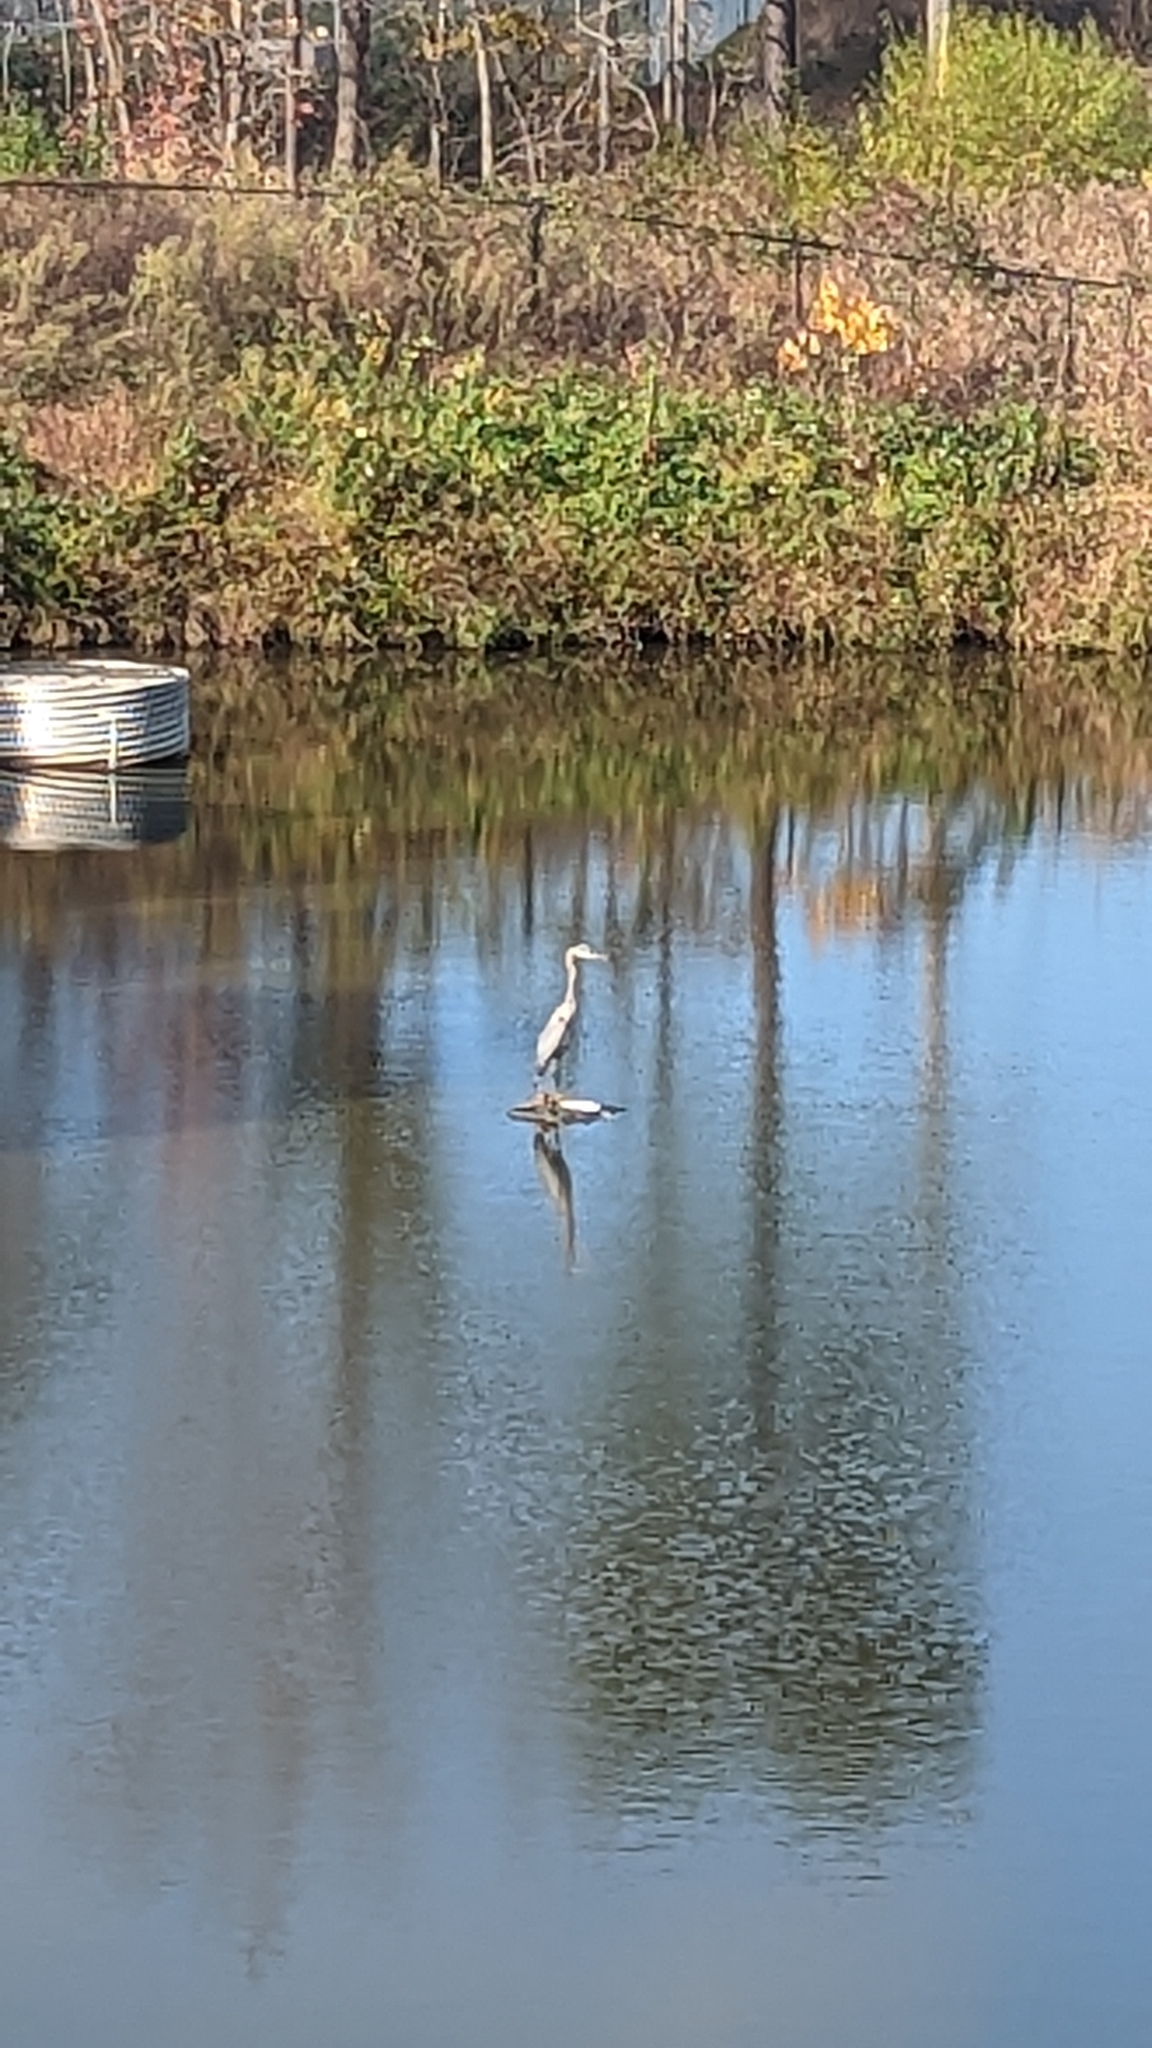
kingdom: Animalia
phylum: Chordata
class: Aves
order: Pelecaniformes
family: Ardeidae
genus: Ardea
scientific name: Ardea herodias
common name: Great blue heron
